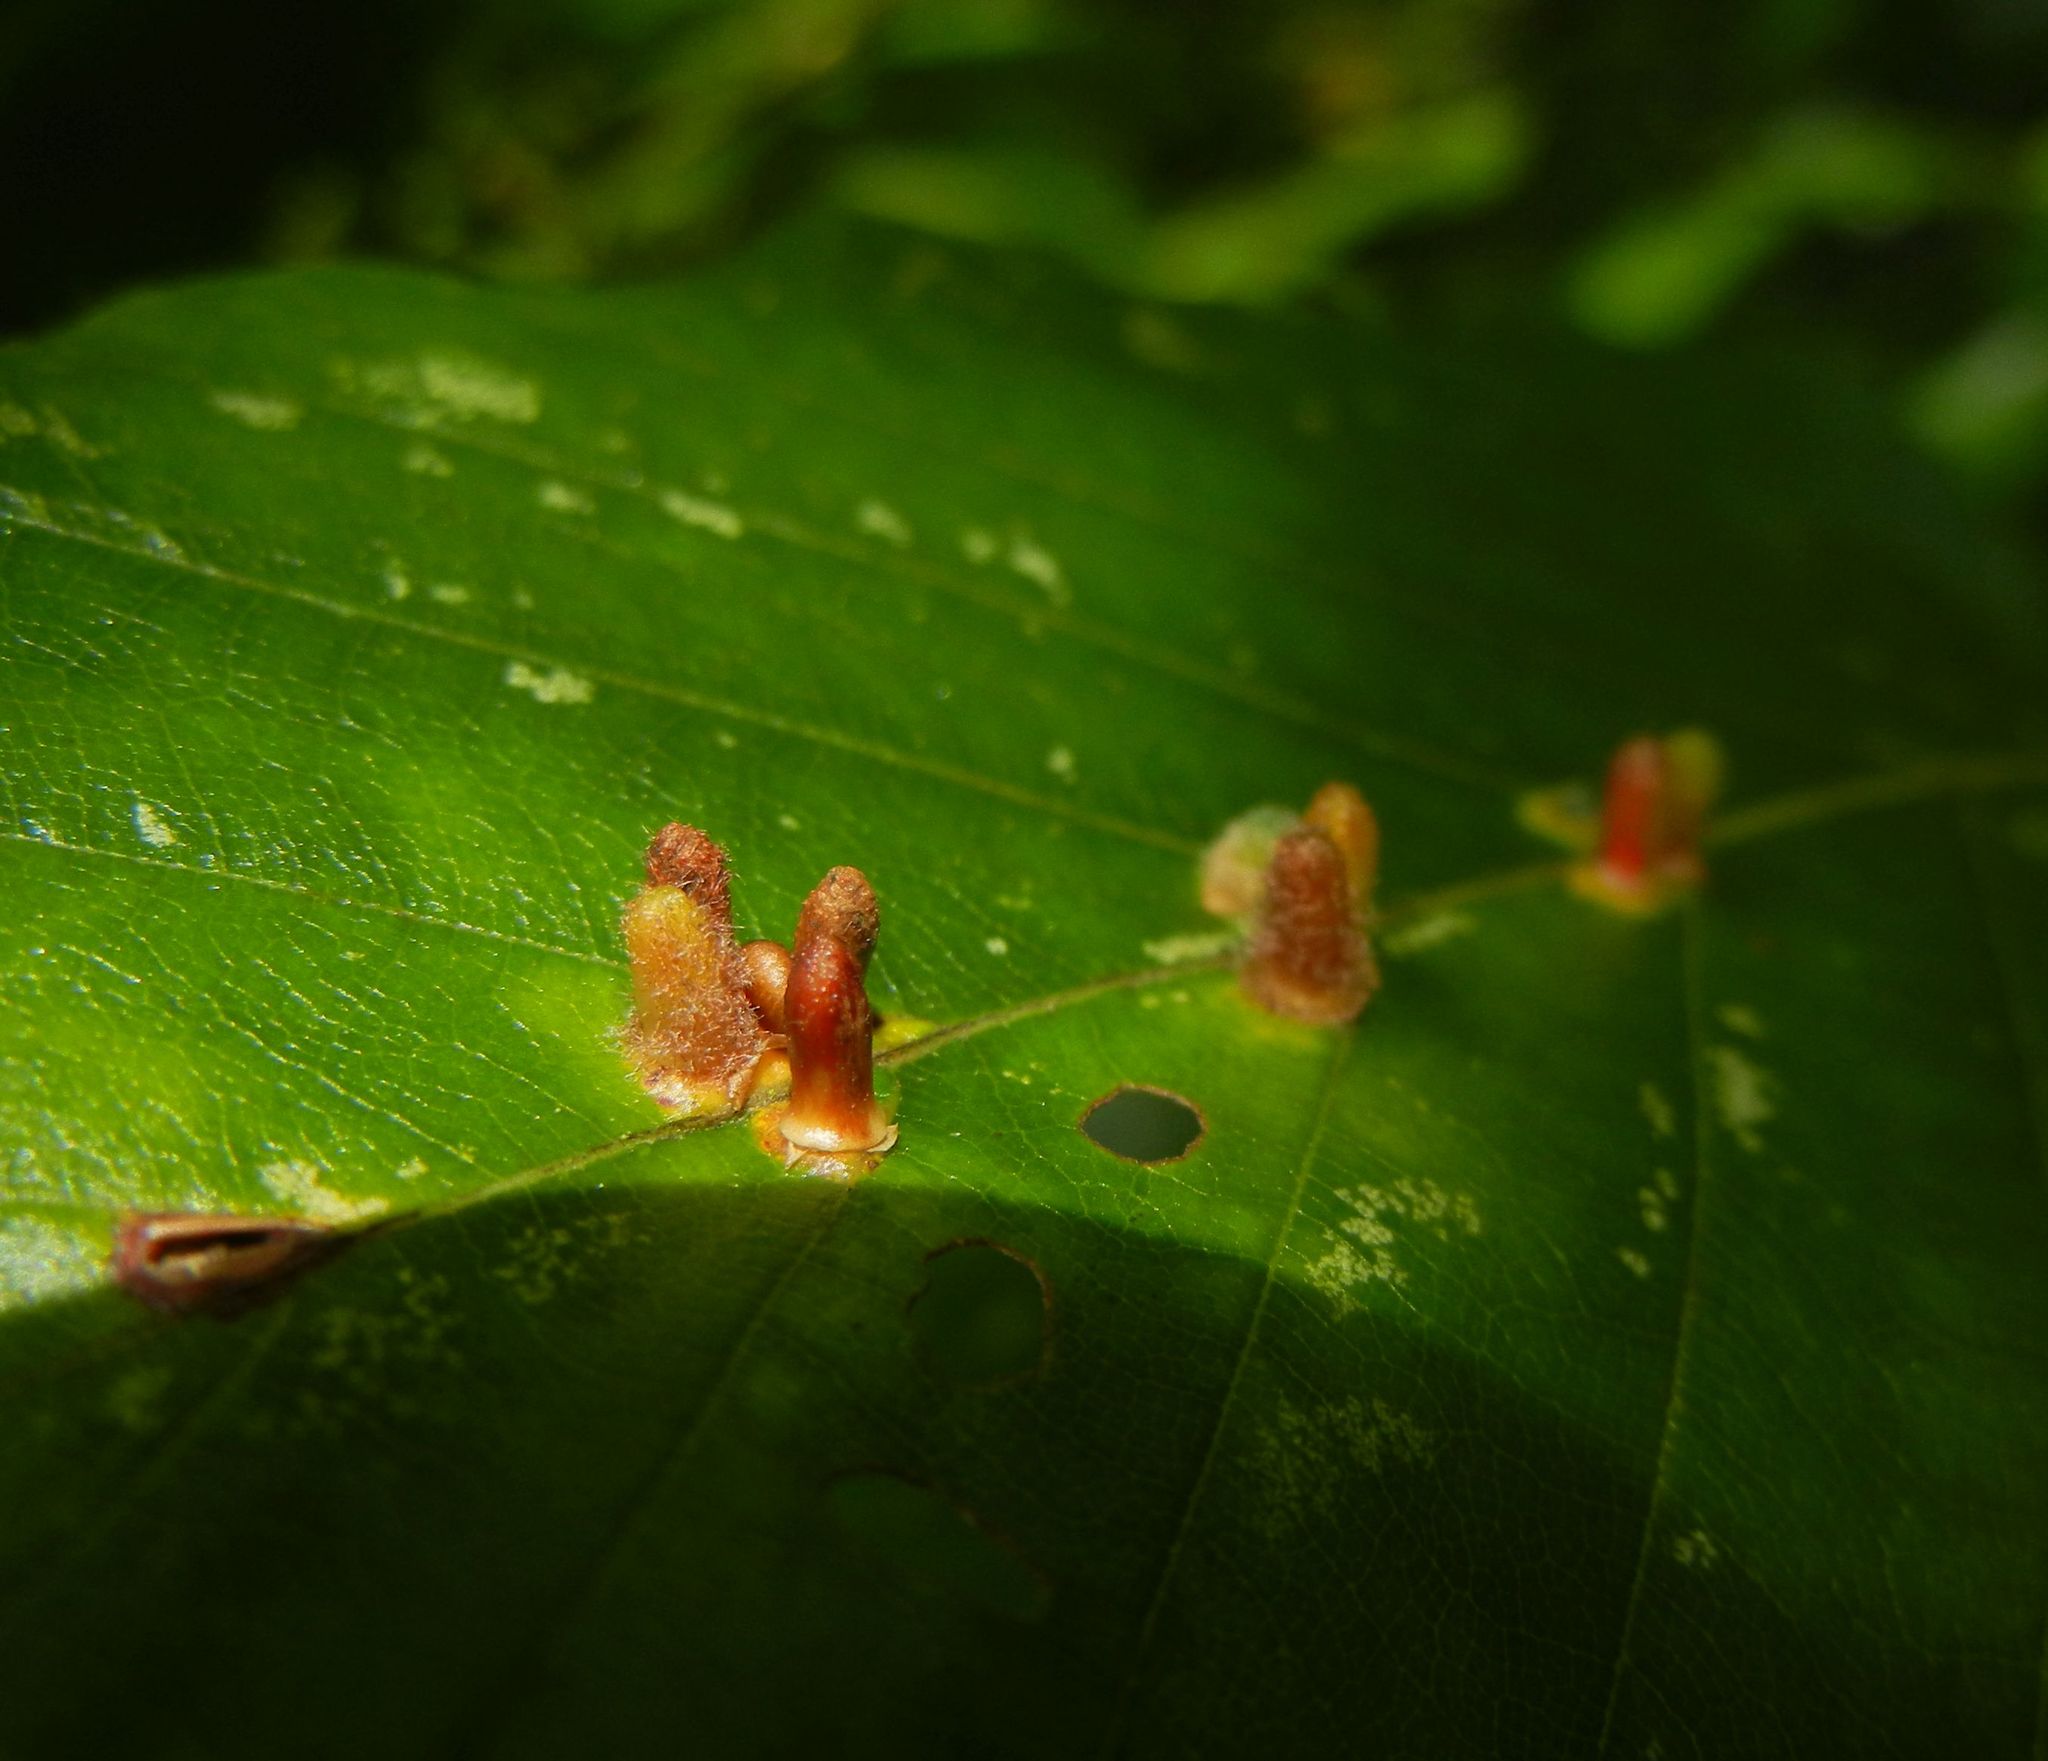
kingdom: Animalia
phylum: Arthropoda
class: Insecta
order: Diptera
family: Cecidomyiidae
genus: Hartigiola
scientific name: Hartigiola annulipes
